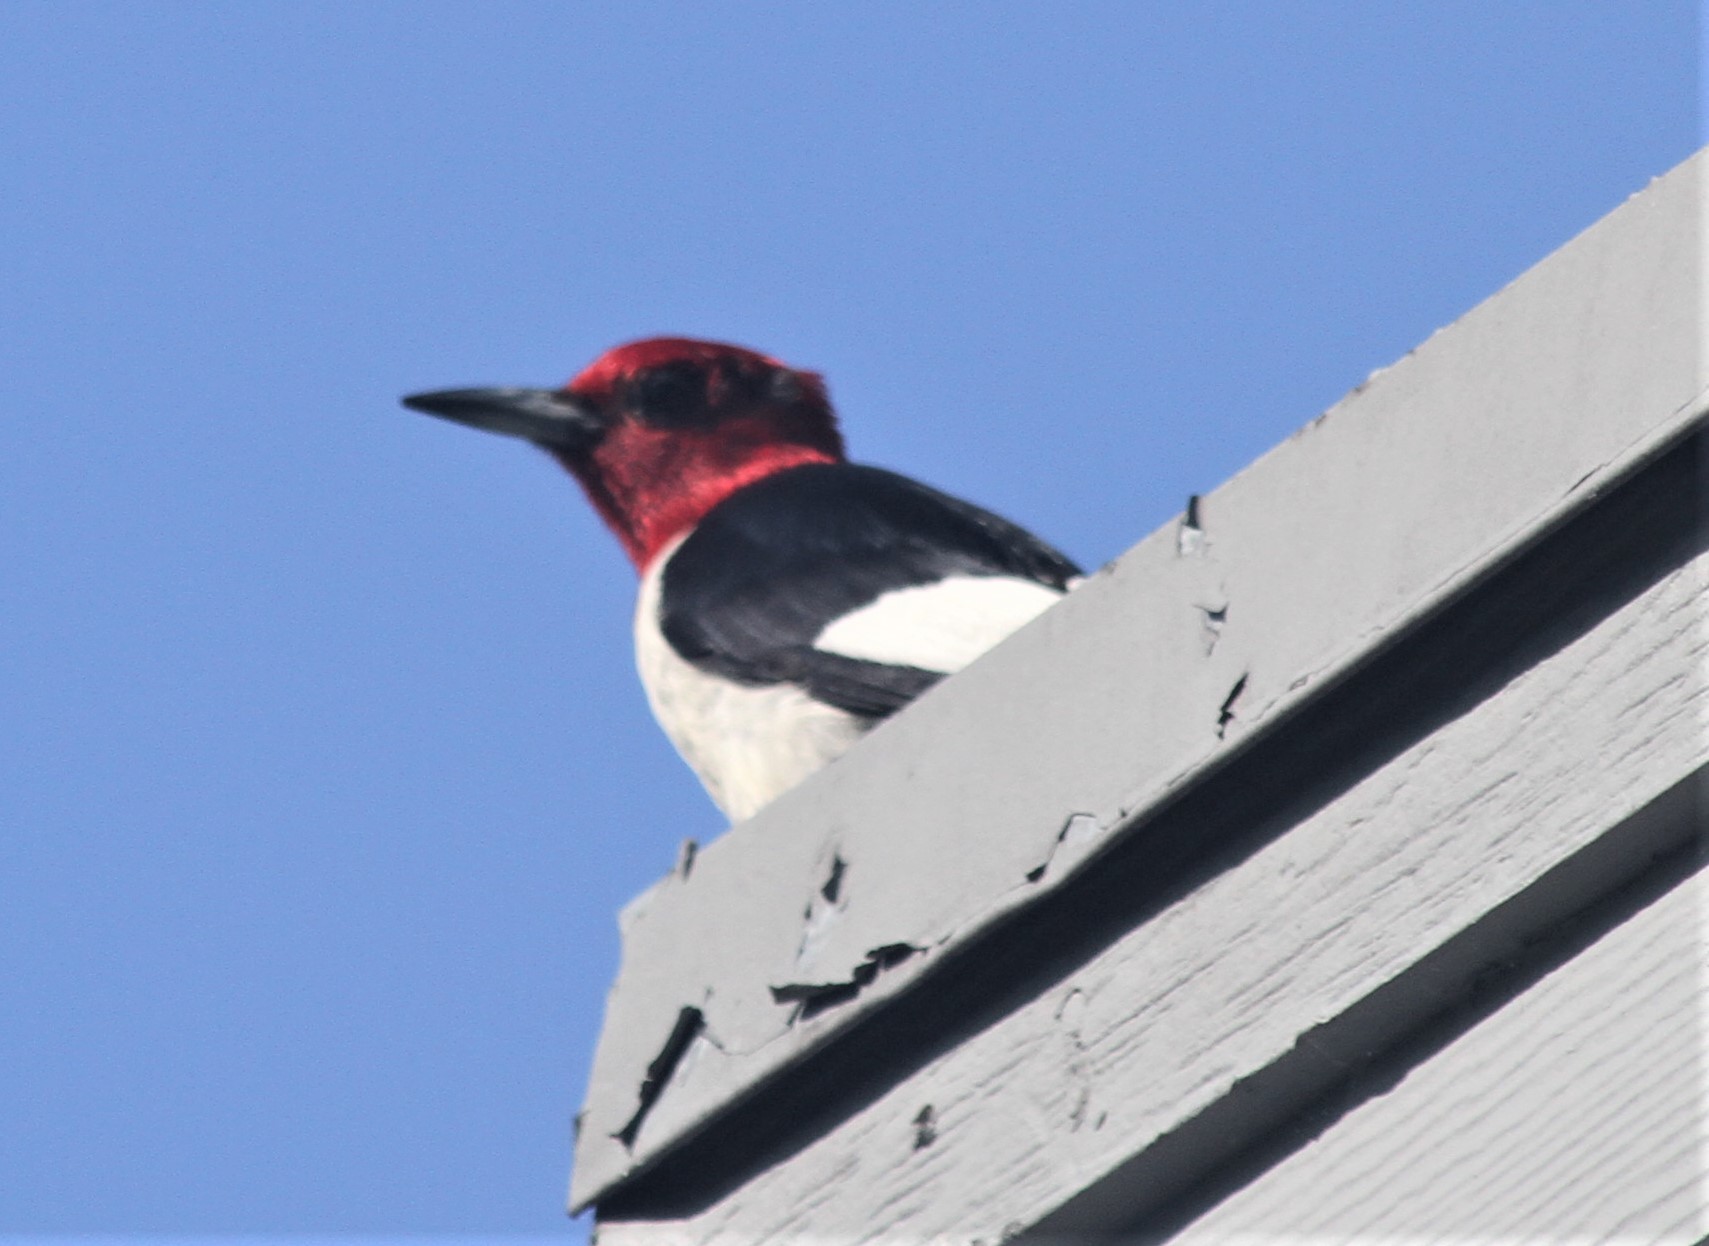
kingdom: Animalia
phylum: Chordata
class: Aves
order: Piciformes
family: Picidae
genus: Melanerpes
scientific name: Melanerpes erythrocephalus
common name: Red-headed woodpecker
